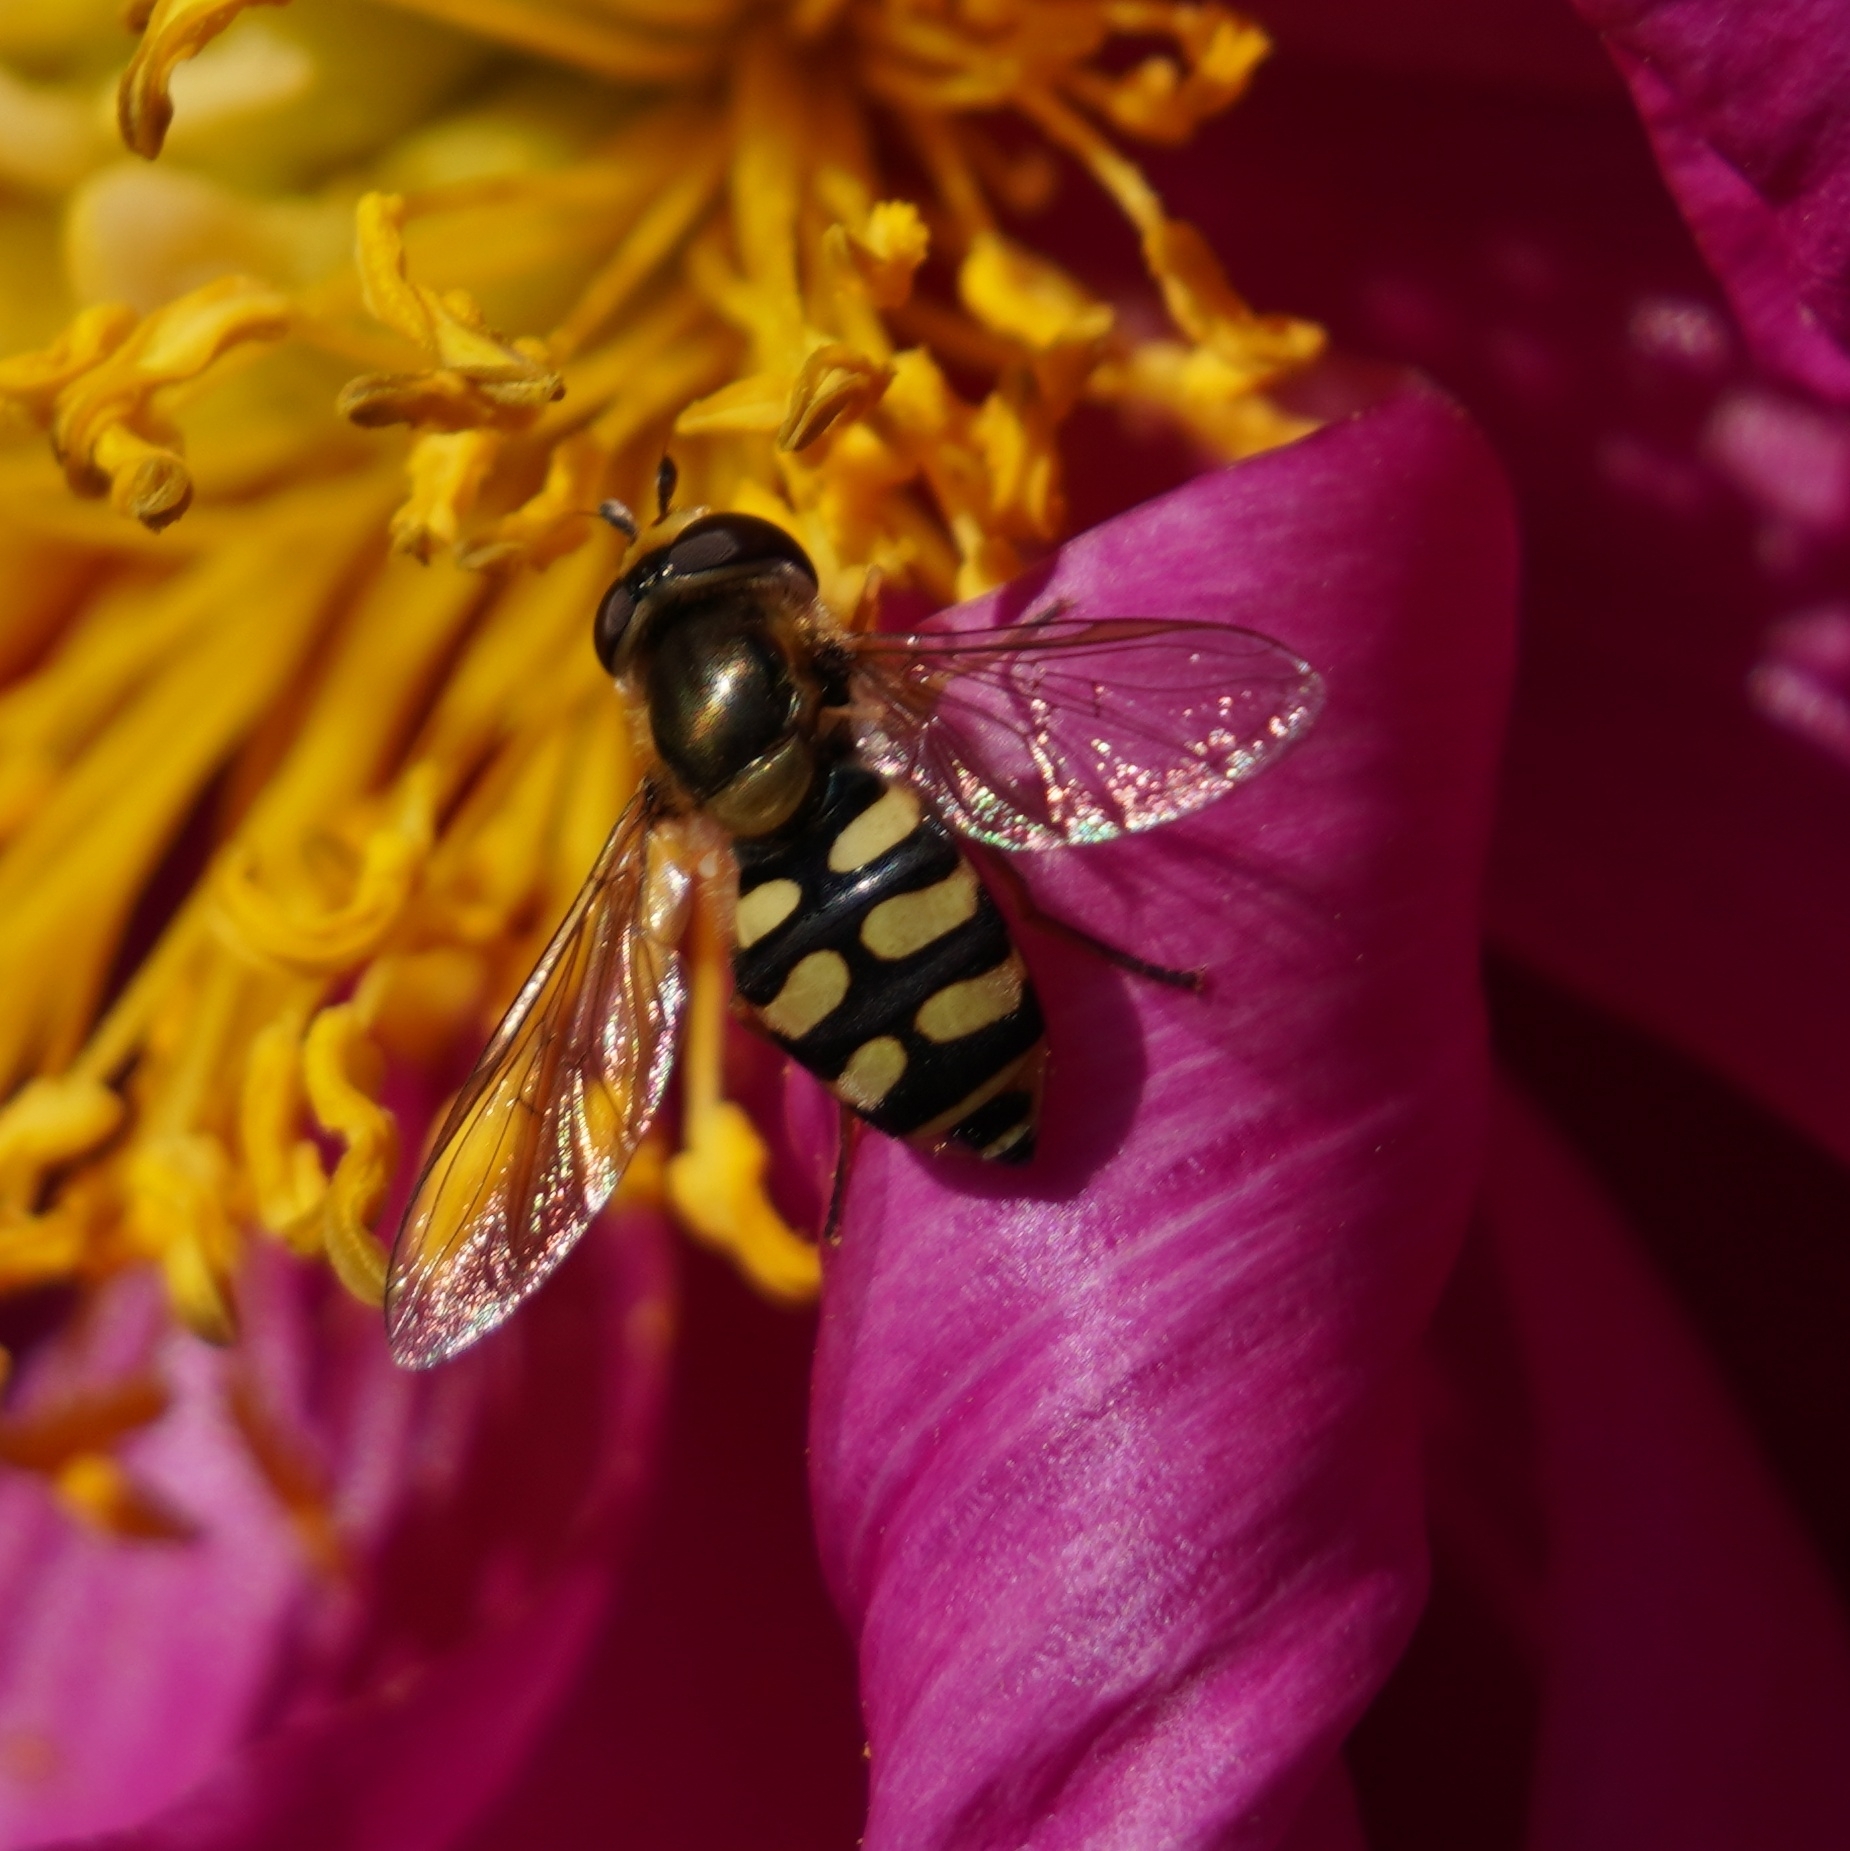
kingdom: Animalia
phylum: Arthropoda
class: Insecta
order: Diptera
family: Syrphidae
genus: Eupeodes
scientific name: Eupeodes corollae
